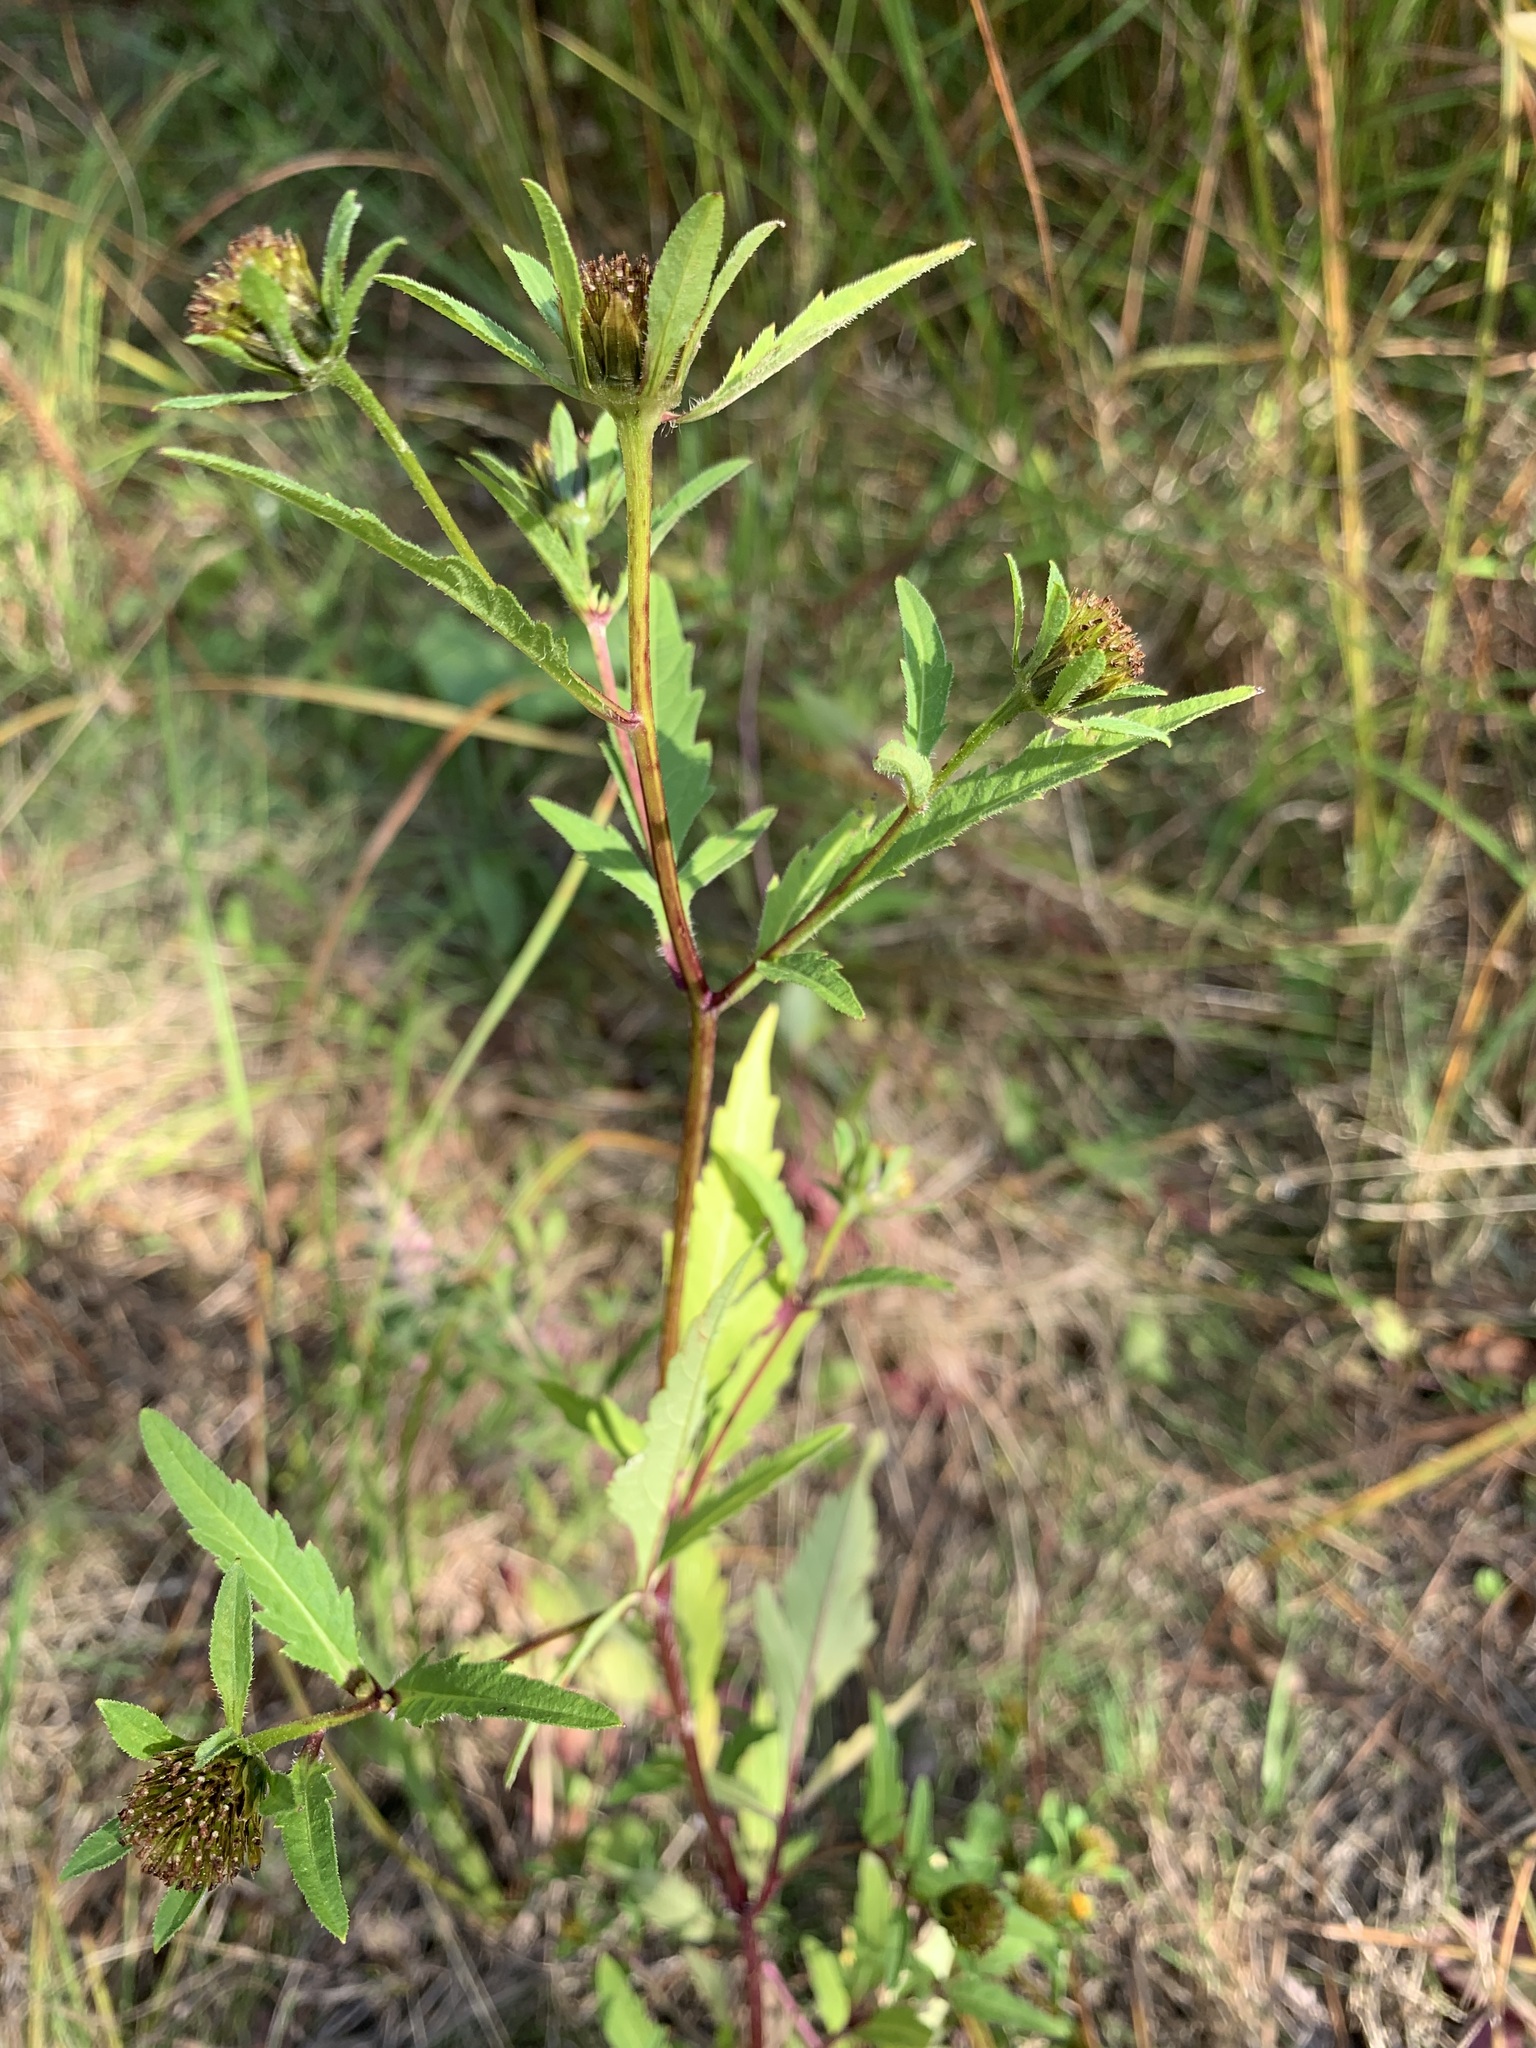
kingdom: Plantae
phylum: Tracheophyta
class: Magnoliopsida
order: Asterales
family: Asteraceae
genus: Bidens
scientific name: Bidens tripartita
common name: Trifid bur-marigold
